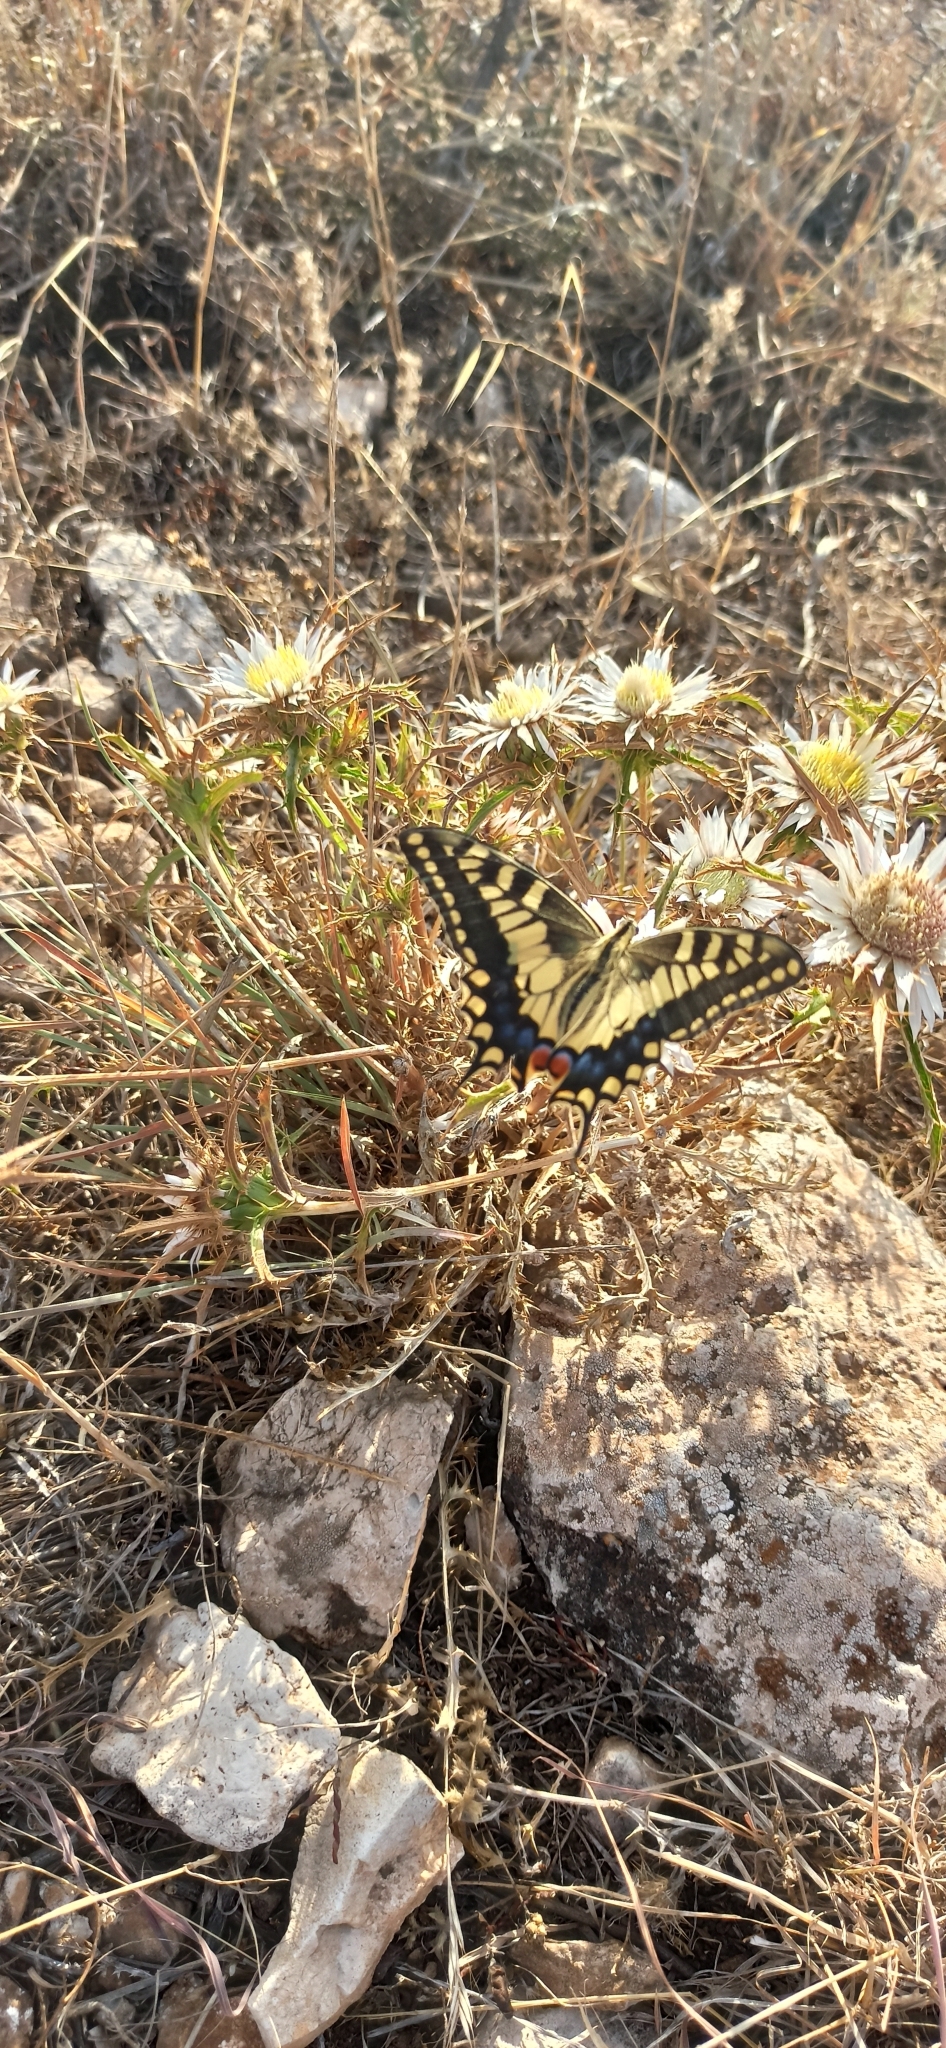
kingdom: Animalia
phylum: Arthropoda
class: Insecta
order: Lepidoptera
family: Papilionidae
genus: Papilio
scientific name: Papilio machaon
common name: Swallowtail
